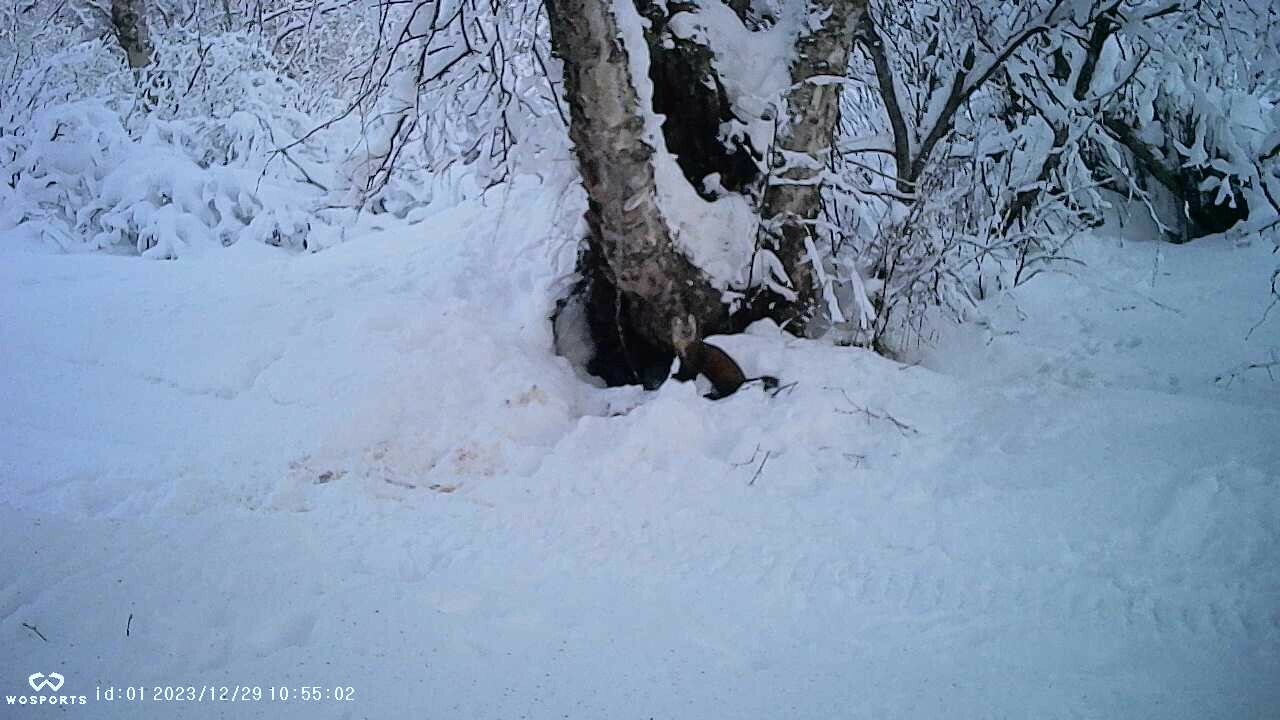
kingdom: Animalia
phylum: Chordata
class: Mammalia
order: Carnivora
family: Mustelidae
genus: Martes
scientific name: Martes americana
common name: American marten
